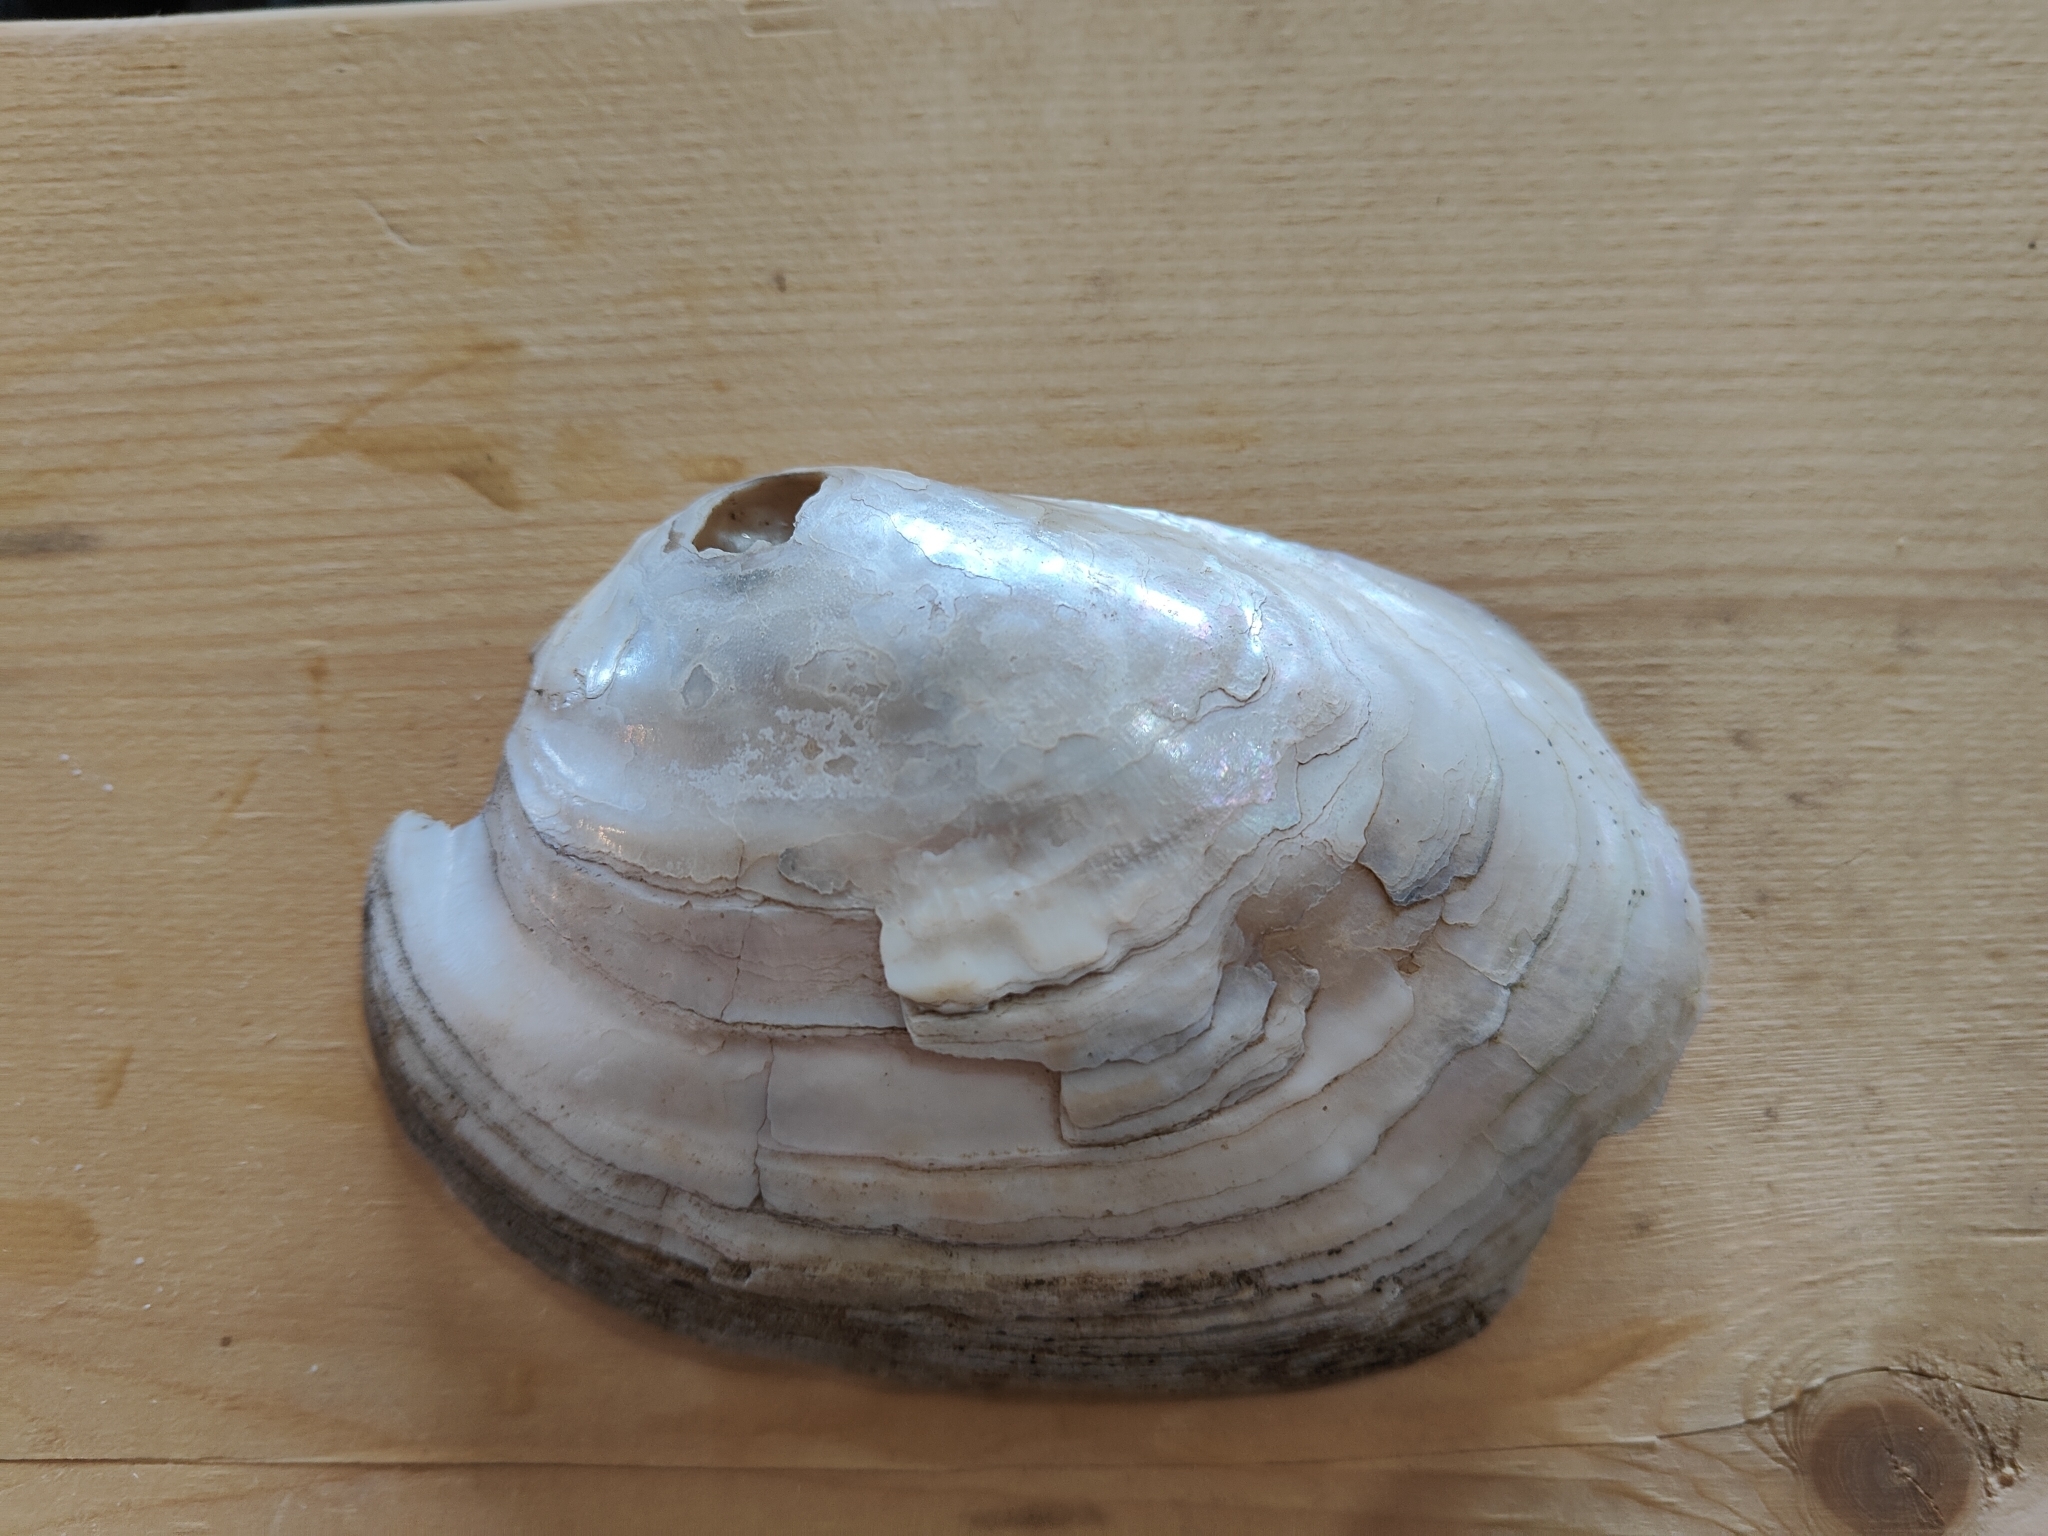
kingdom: Animalia
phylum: Mollusca
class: Bivalvia
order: Unionida
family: Unionidae
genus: Lampsilis
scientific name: Lampsilis siliquoidea
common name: Fatmucket
